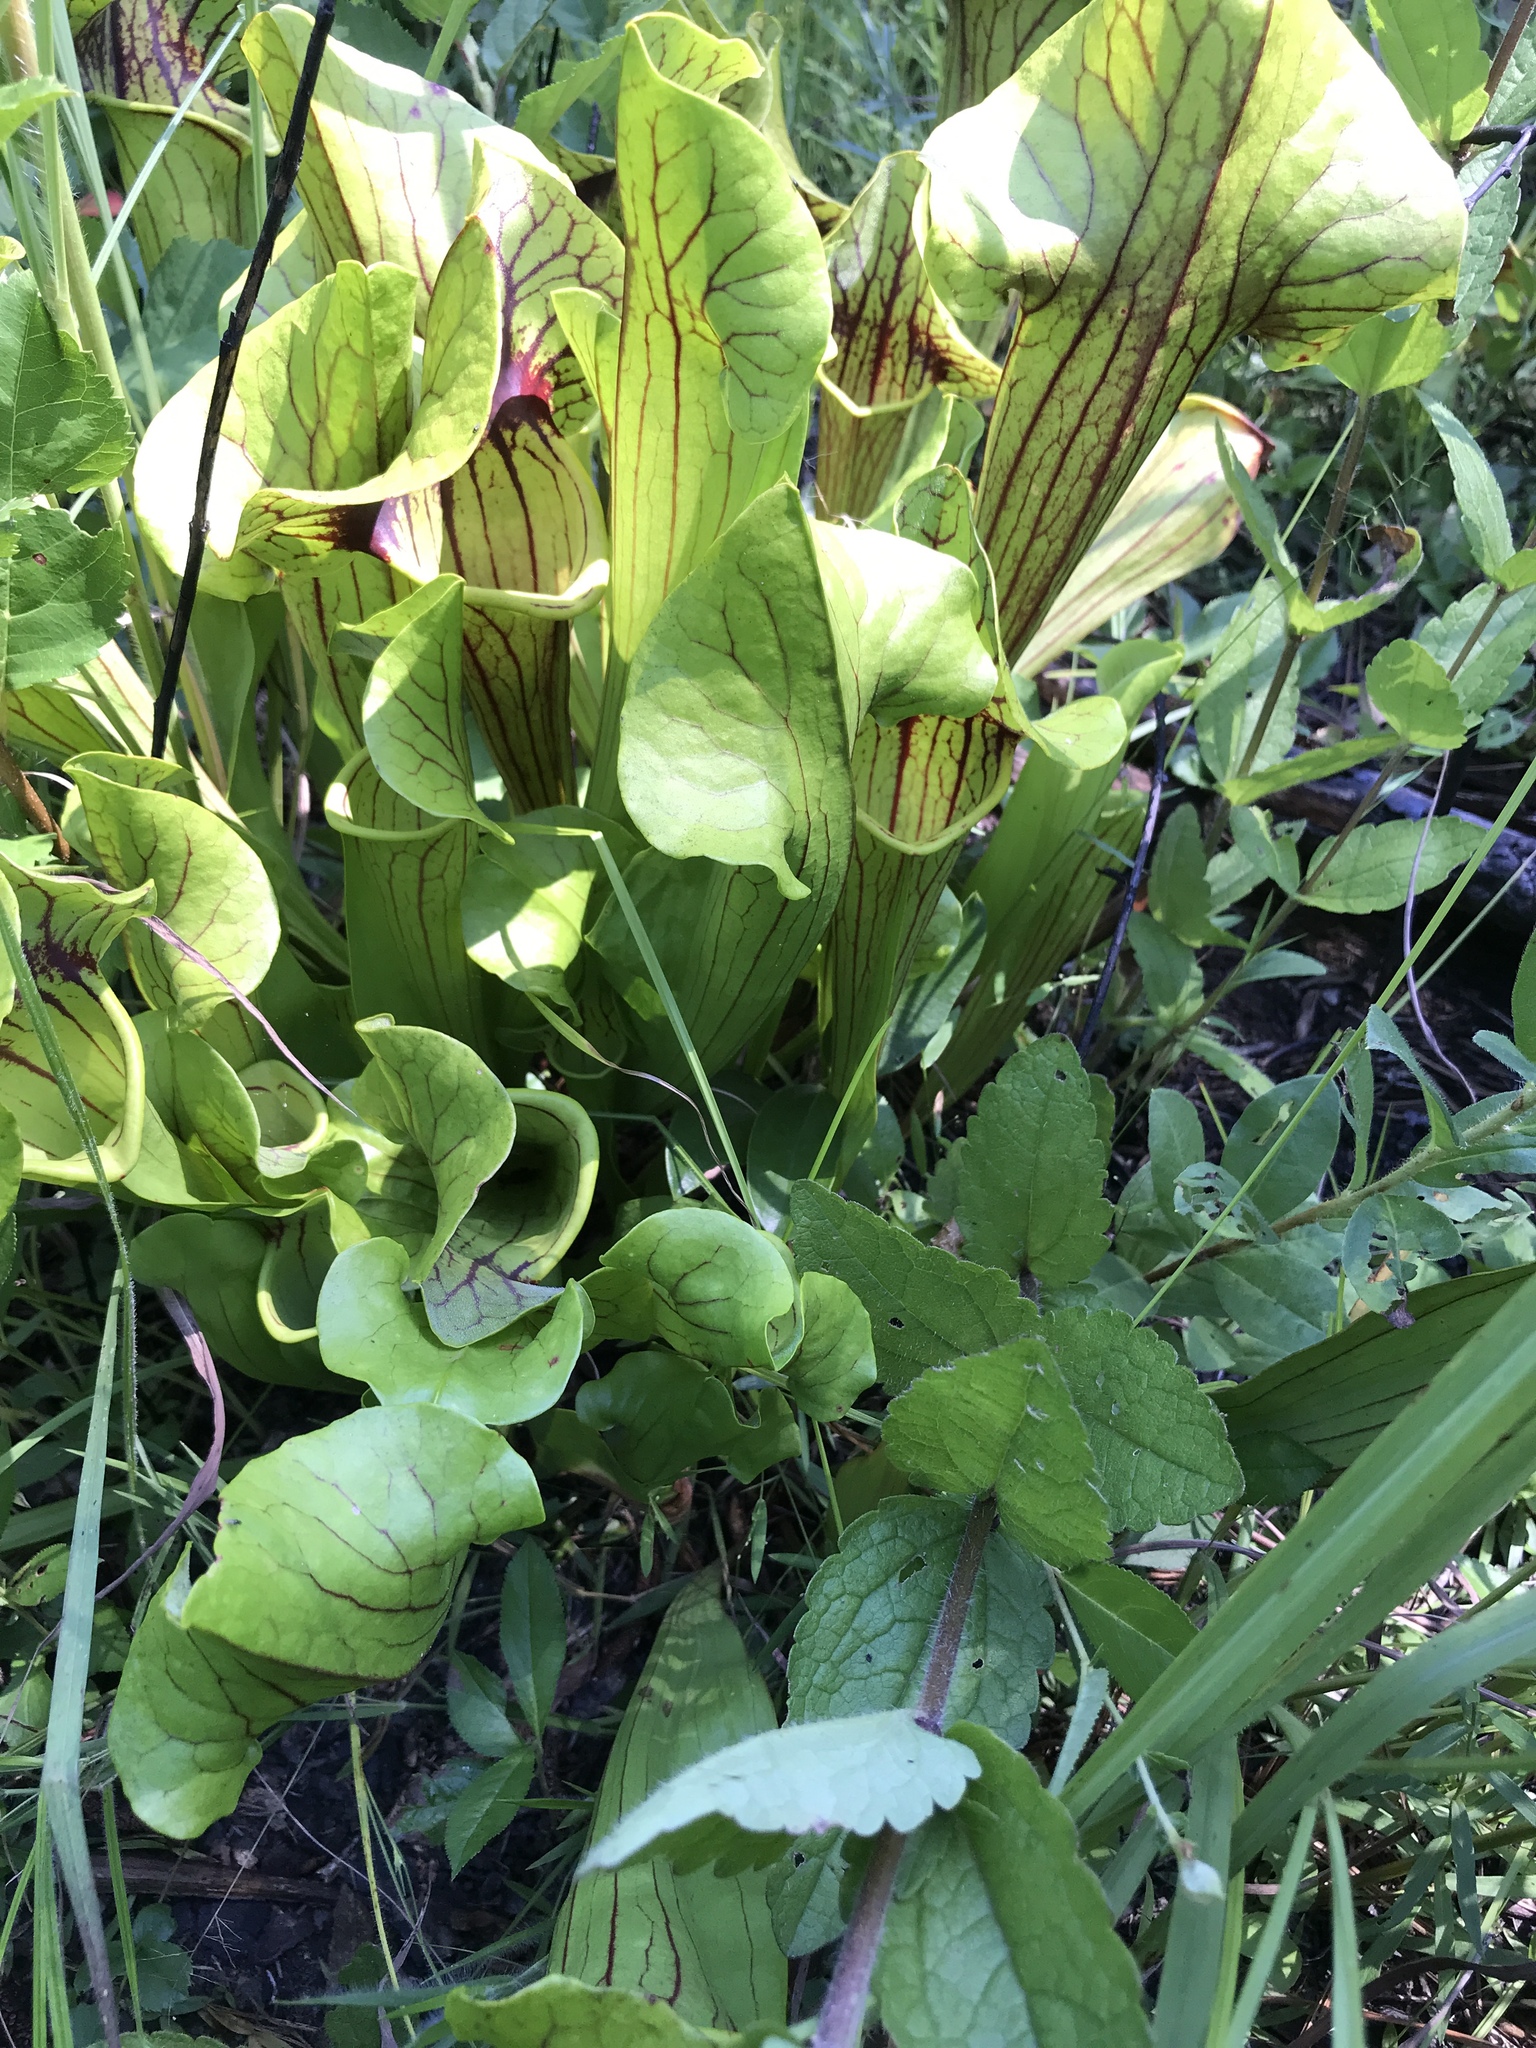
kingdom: Plantae
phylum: Tracheophyta
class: Magnoliopsida
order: Ericales
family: Sarraceniaceae
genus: Sarracenia
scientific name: Sarracenia catesbaei
